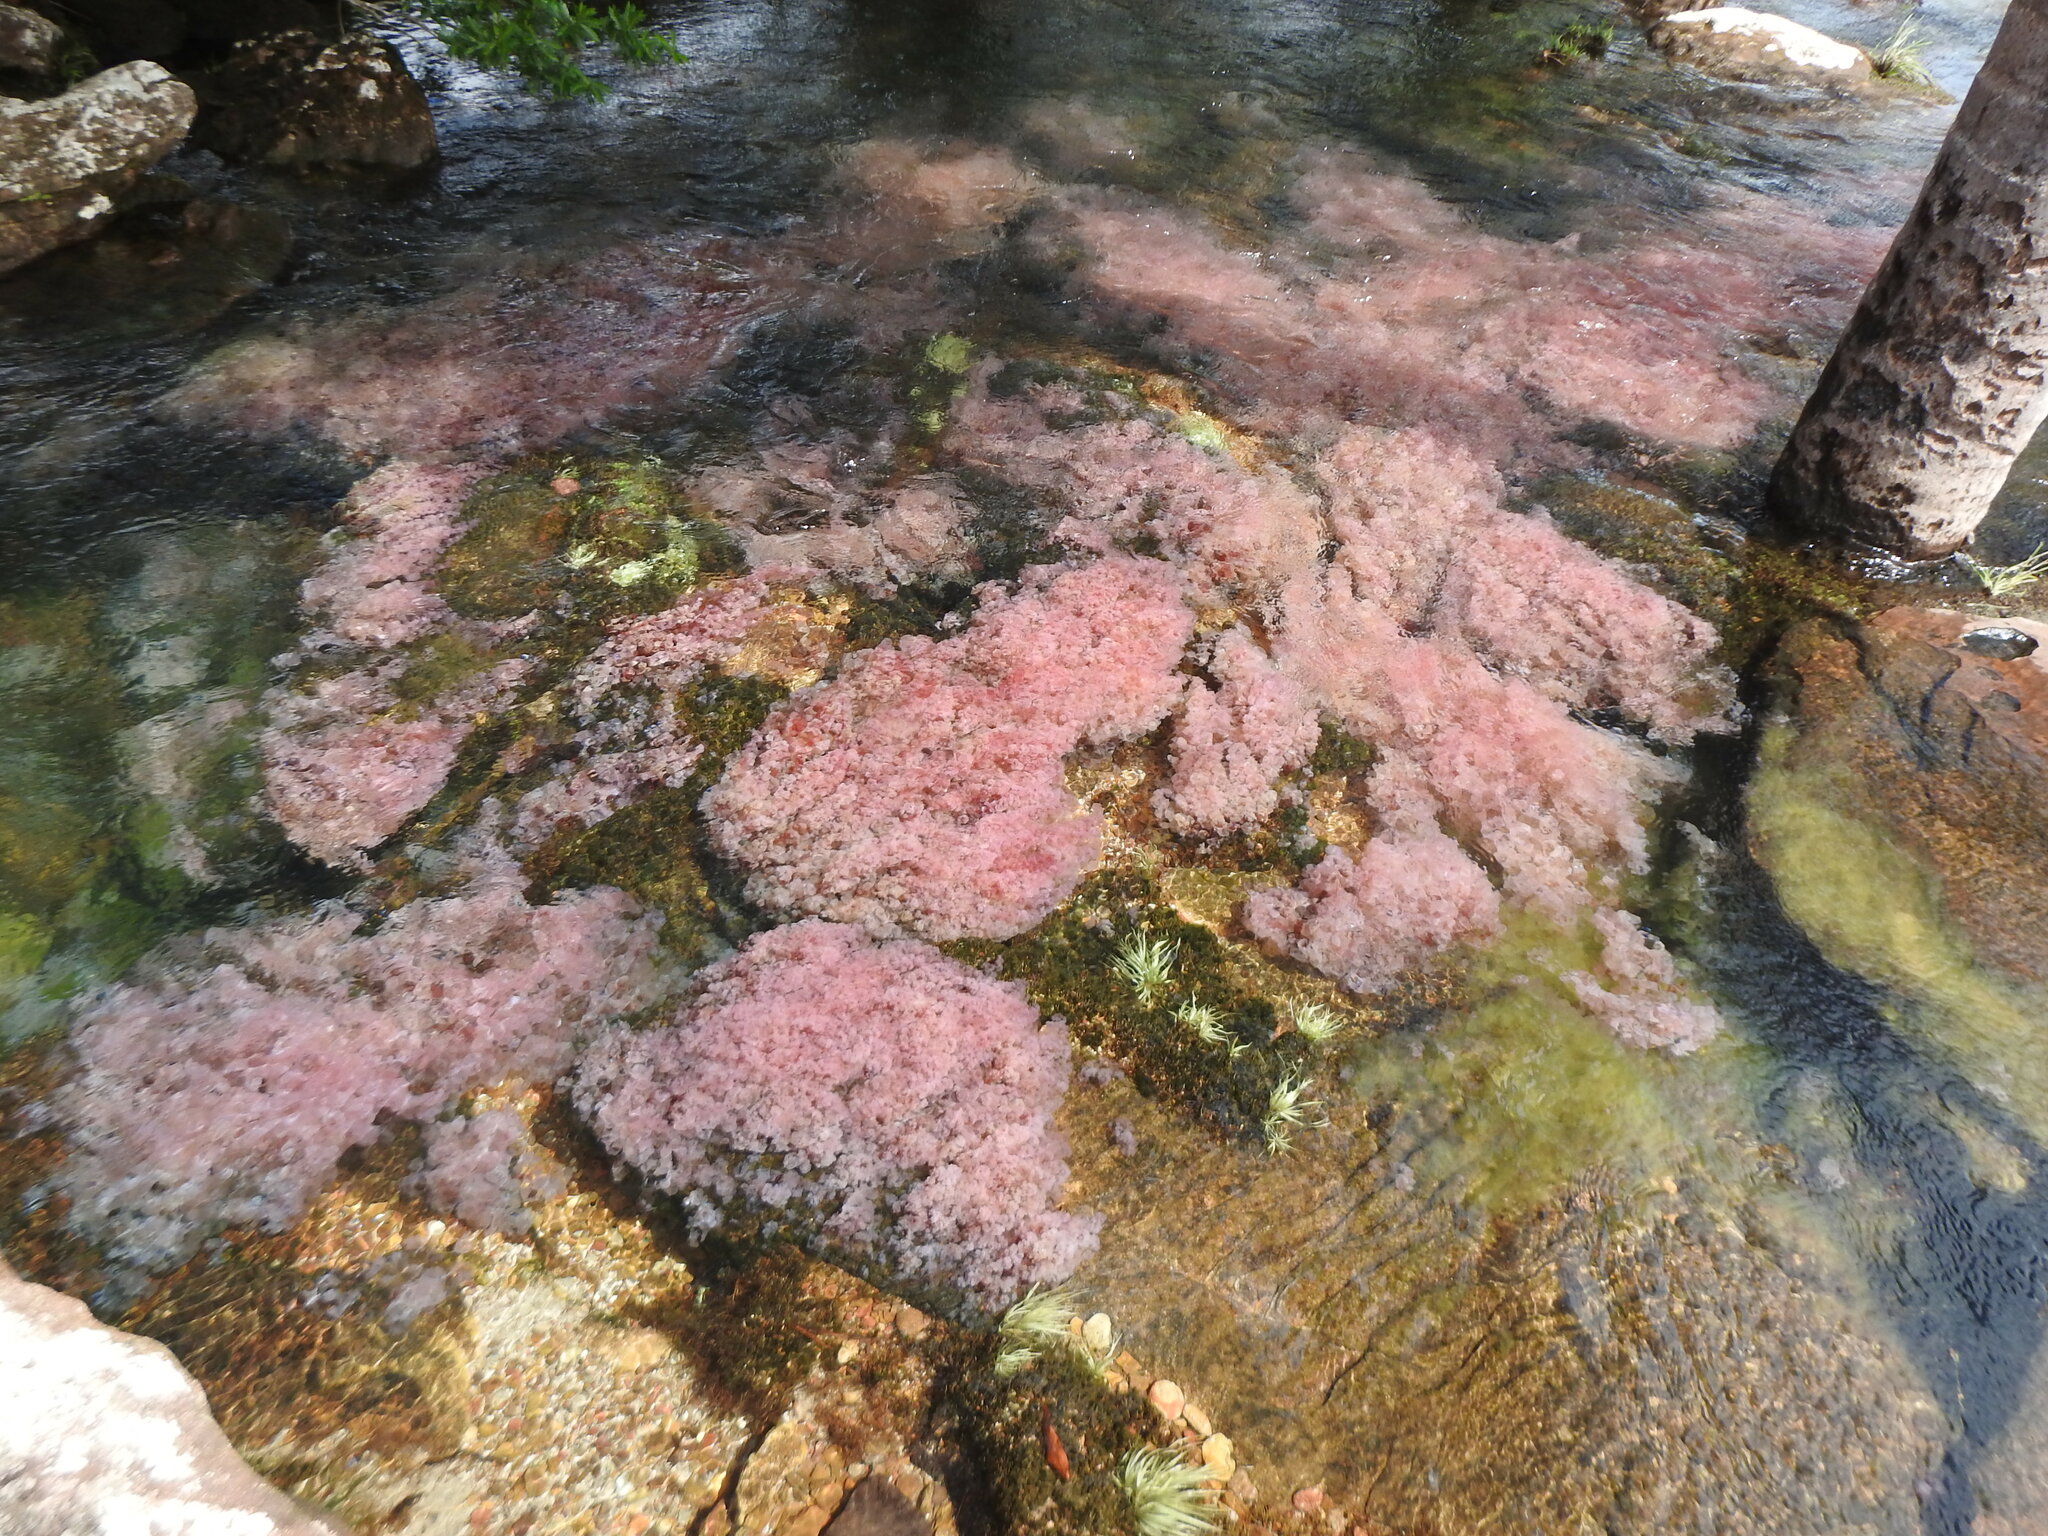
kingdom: Plantae
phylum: Tracheophyta
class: Magnoliopsida
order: Malpighiales
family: Podostemaceae
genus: Rhyncholacis
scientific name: Rhyncholacis clavigera
